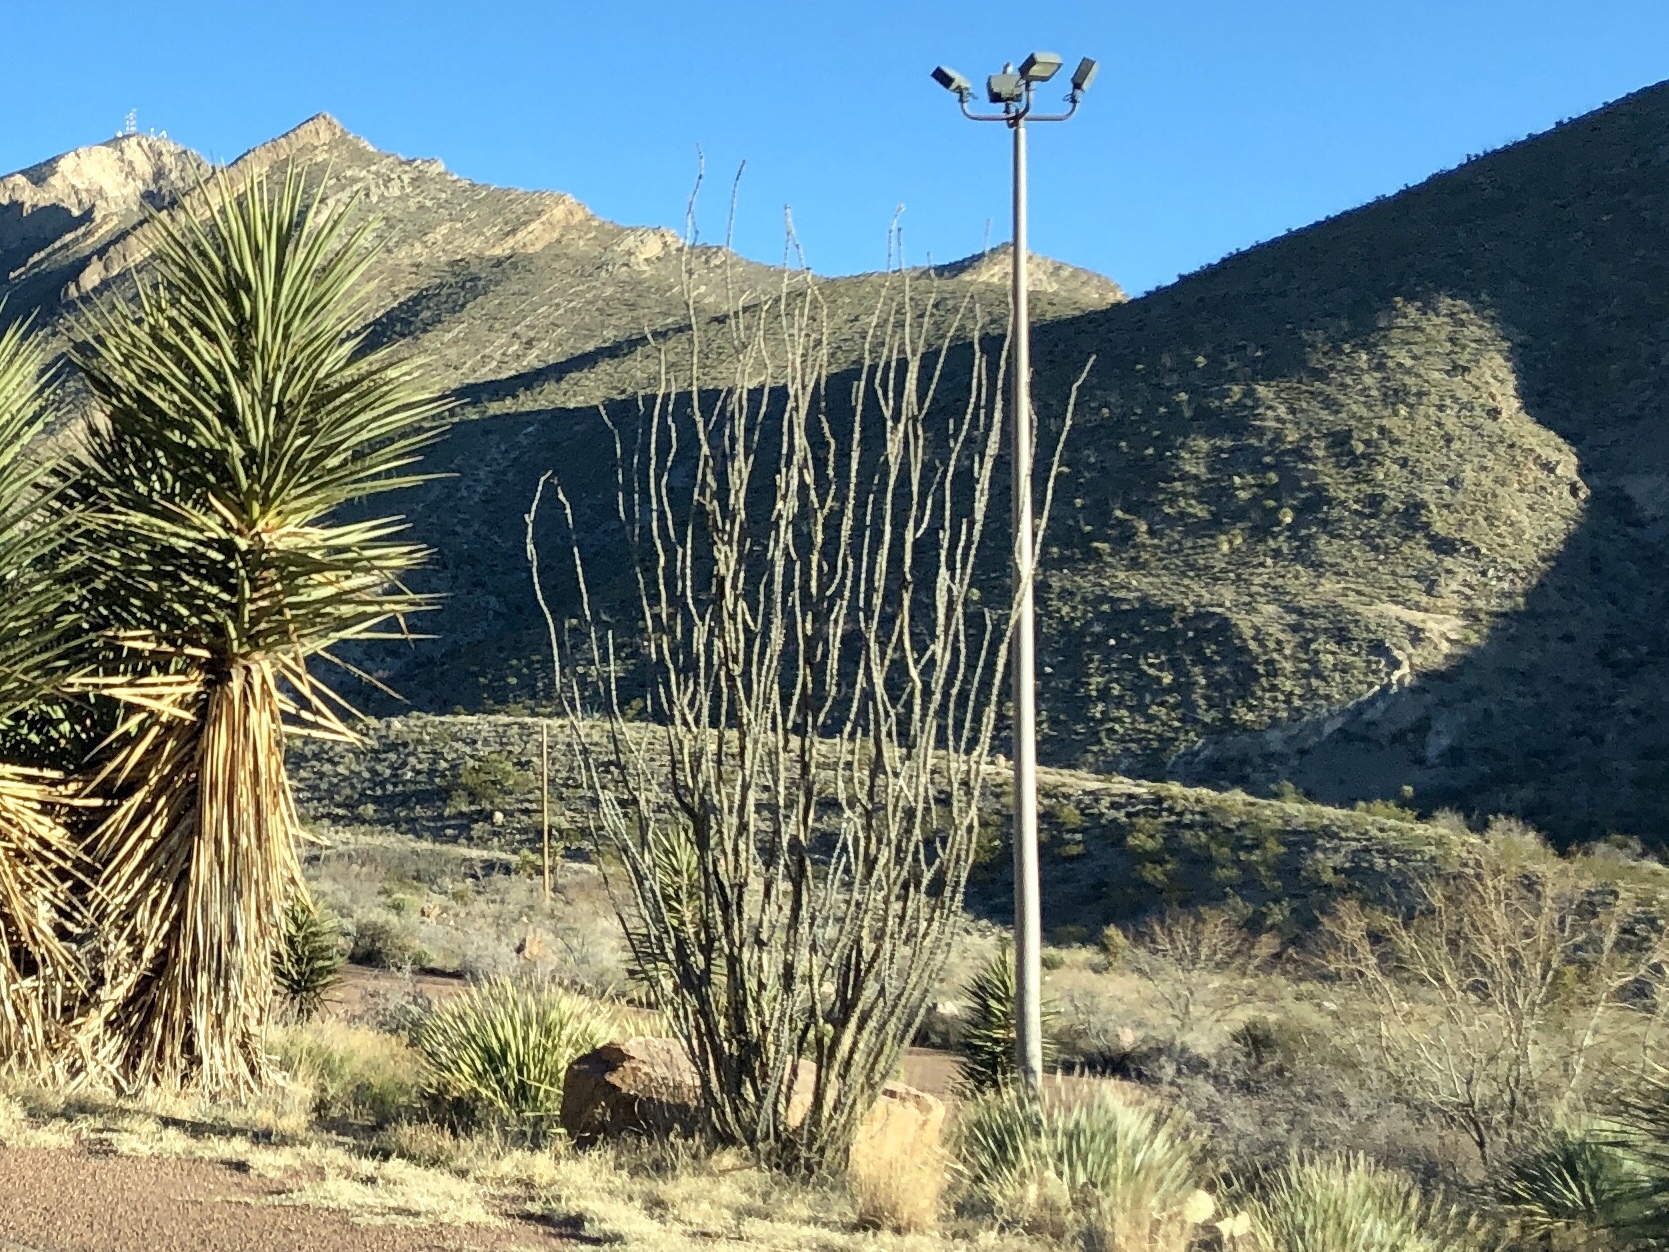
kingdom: Plantae
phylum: Tracheophyta
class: Magnoliopsida
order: Ericales
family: Fouquieriaceae
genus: Fouquieria
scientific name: Fouquieria splendens
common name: Vine-cactus
